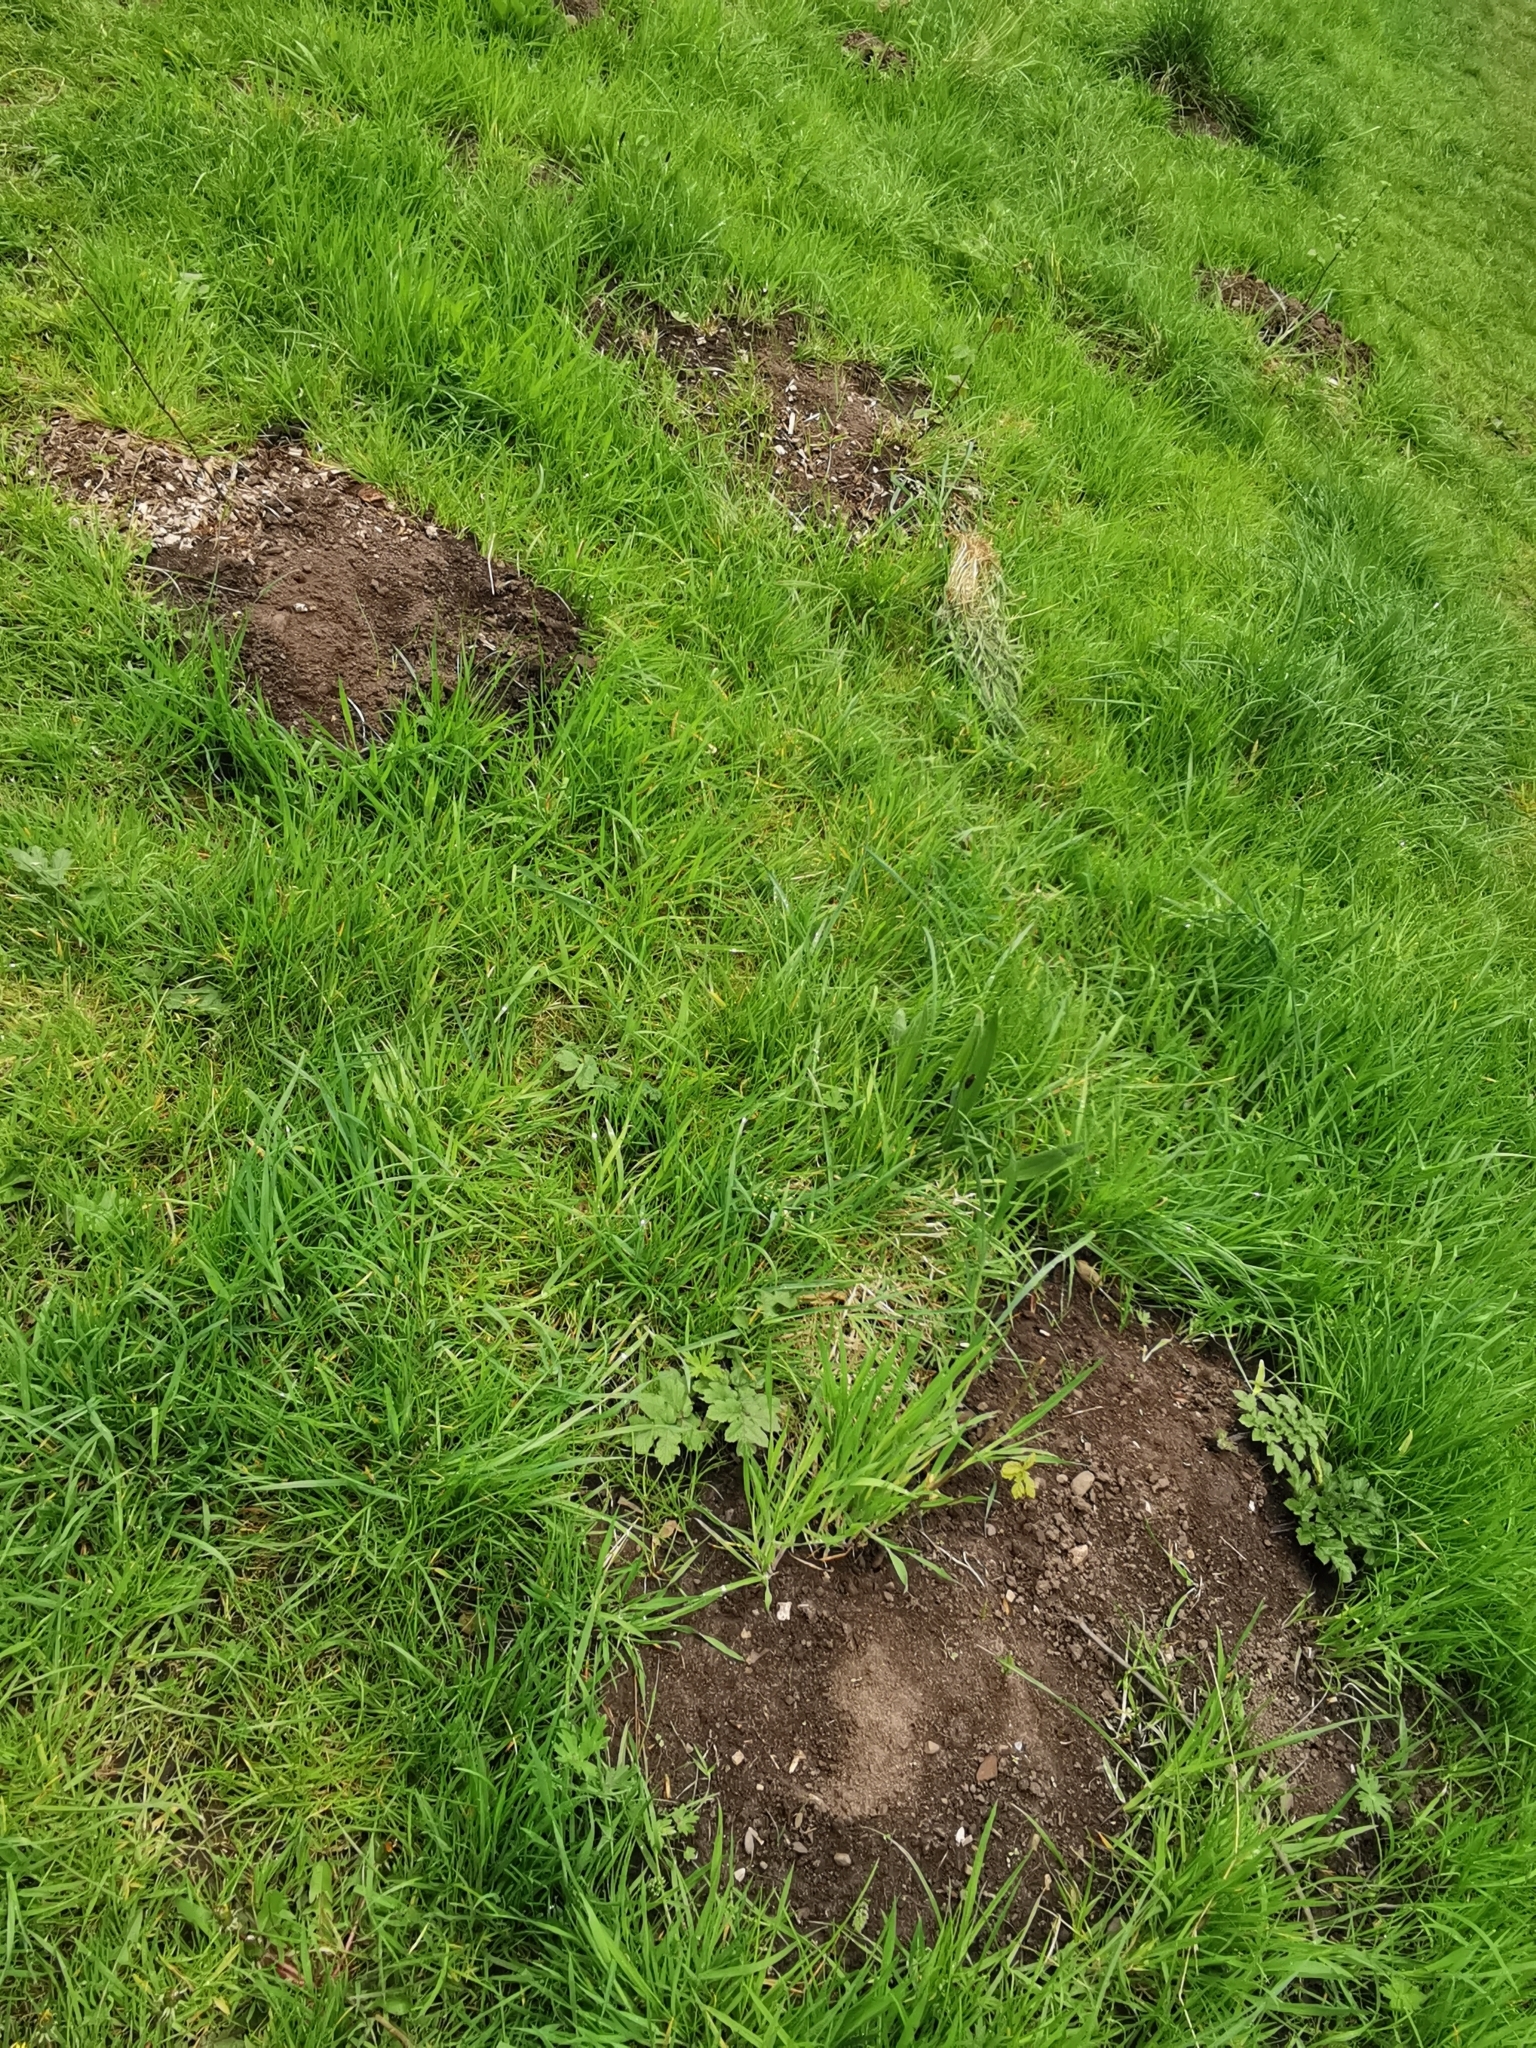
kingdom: Animalia
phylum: Chordata
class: Mammalia
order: Soricomorpha
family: Talpidae
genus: Talpa
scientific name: Talpa europaea
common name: European mole
